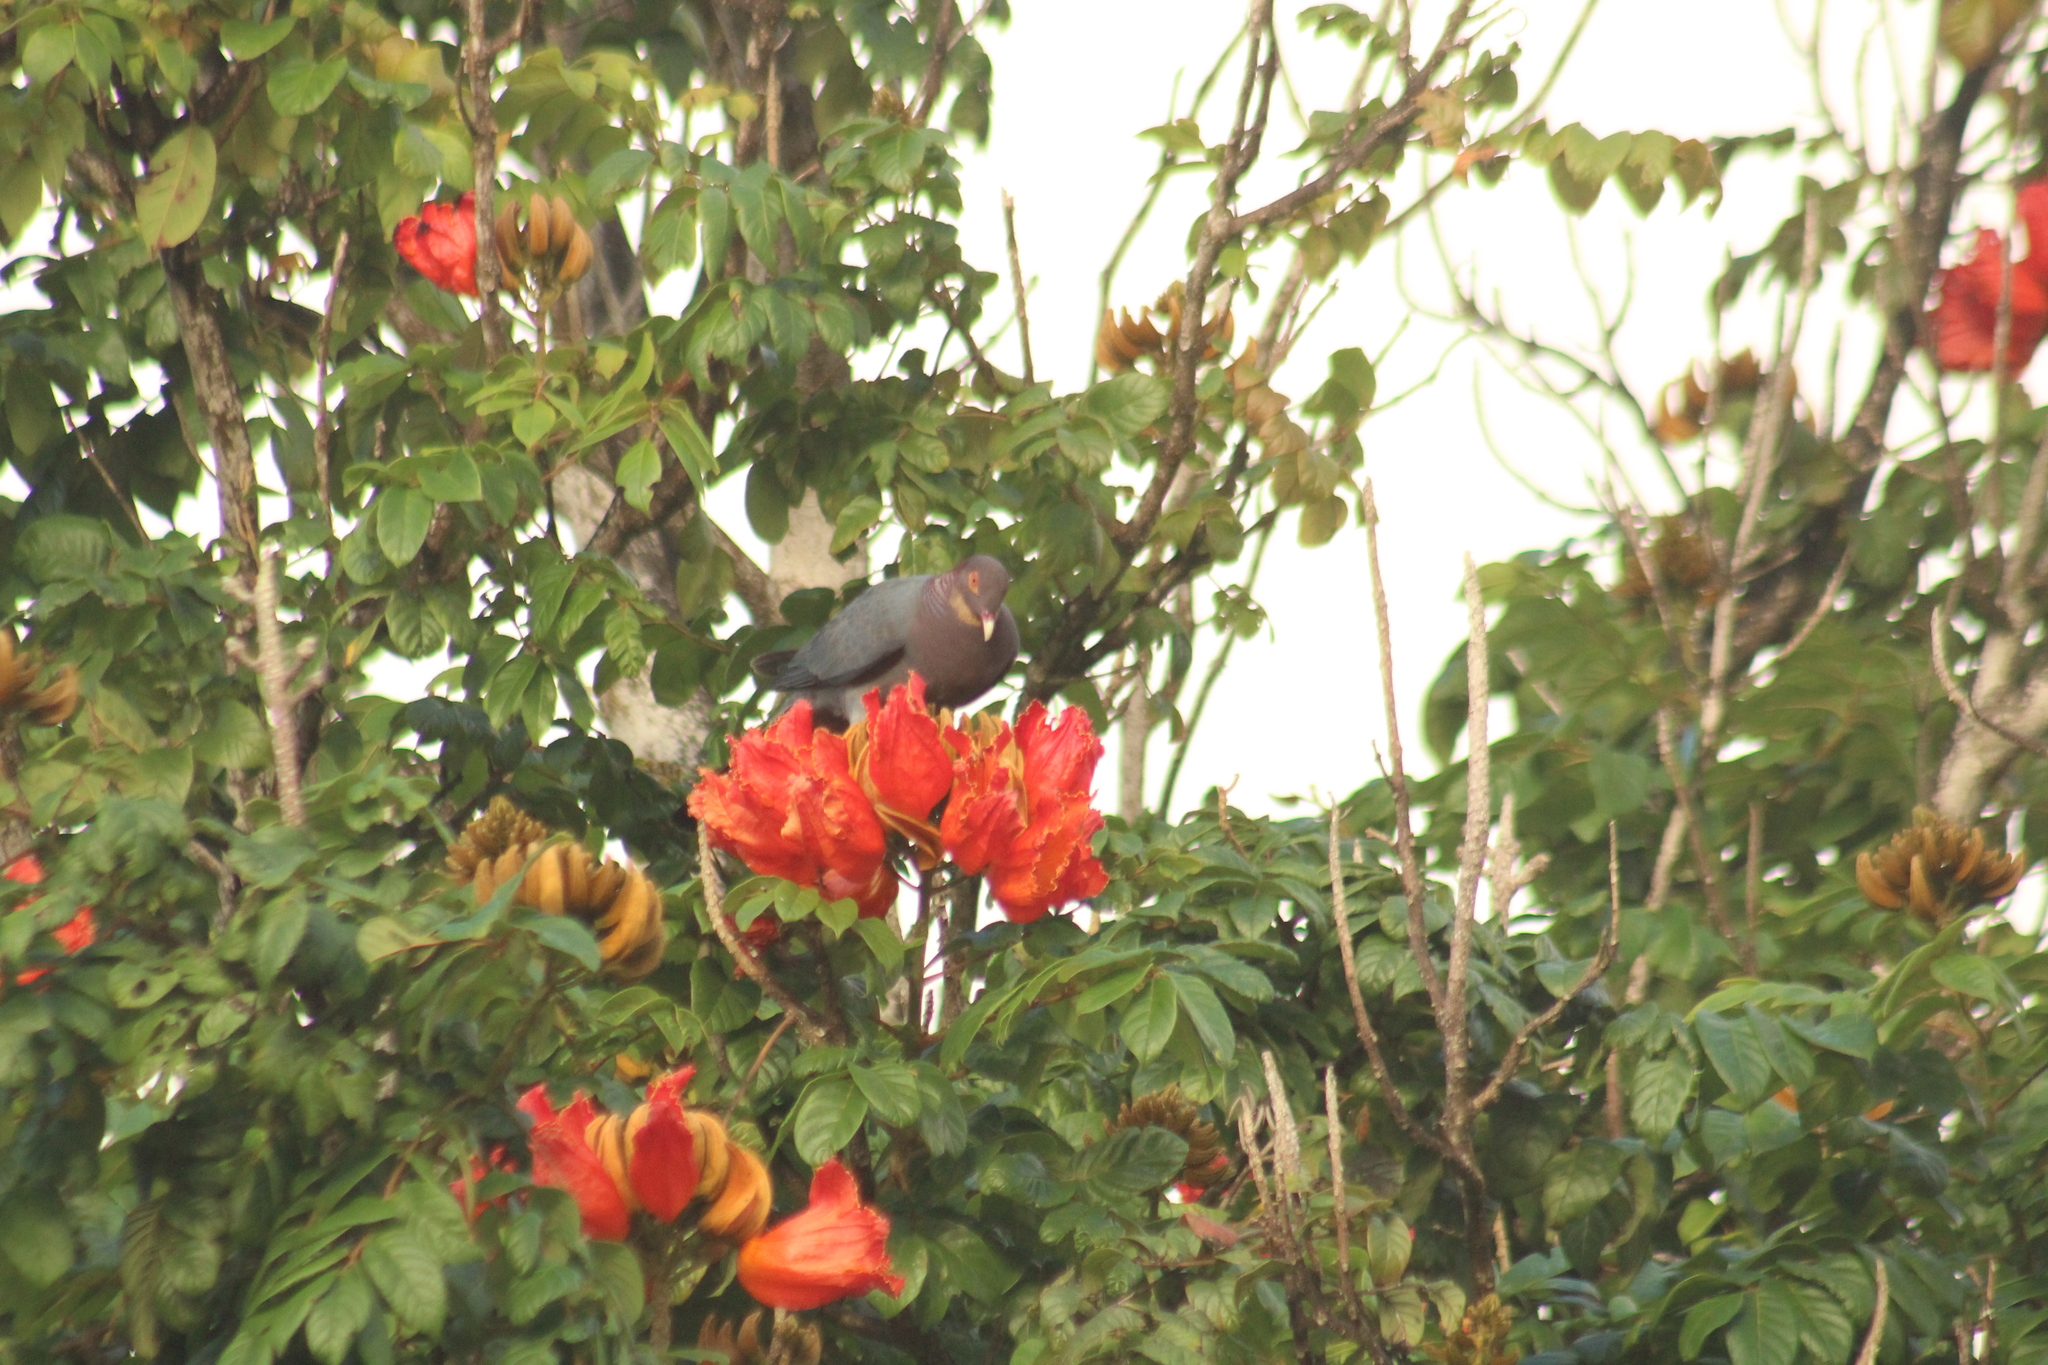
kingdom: Animalia
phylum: Chordata
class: Aves
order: Columbiformes
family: Columbidae
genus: Patagioenas
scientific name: Patagioenas squamosa
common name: Scaly-naped pigeon
